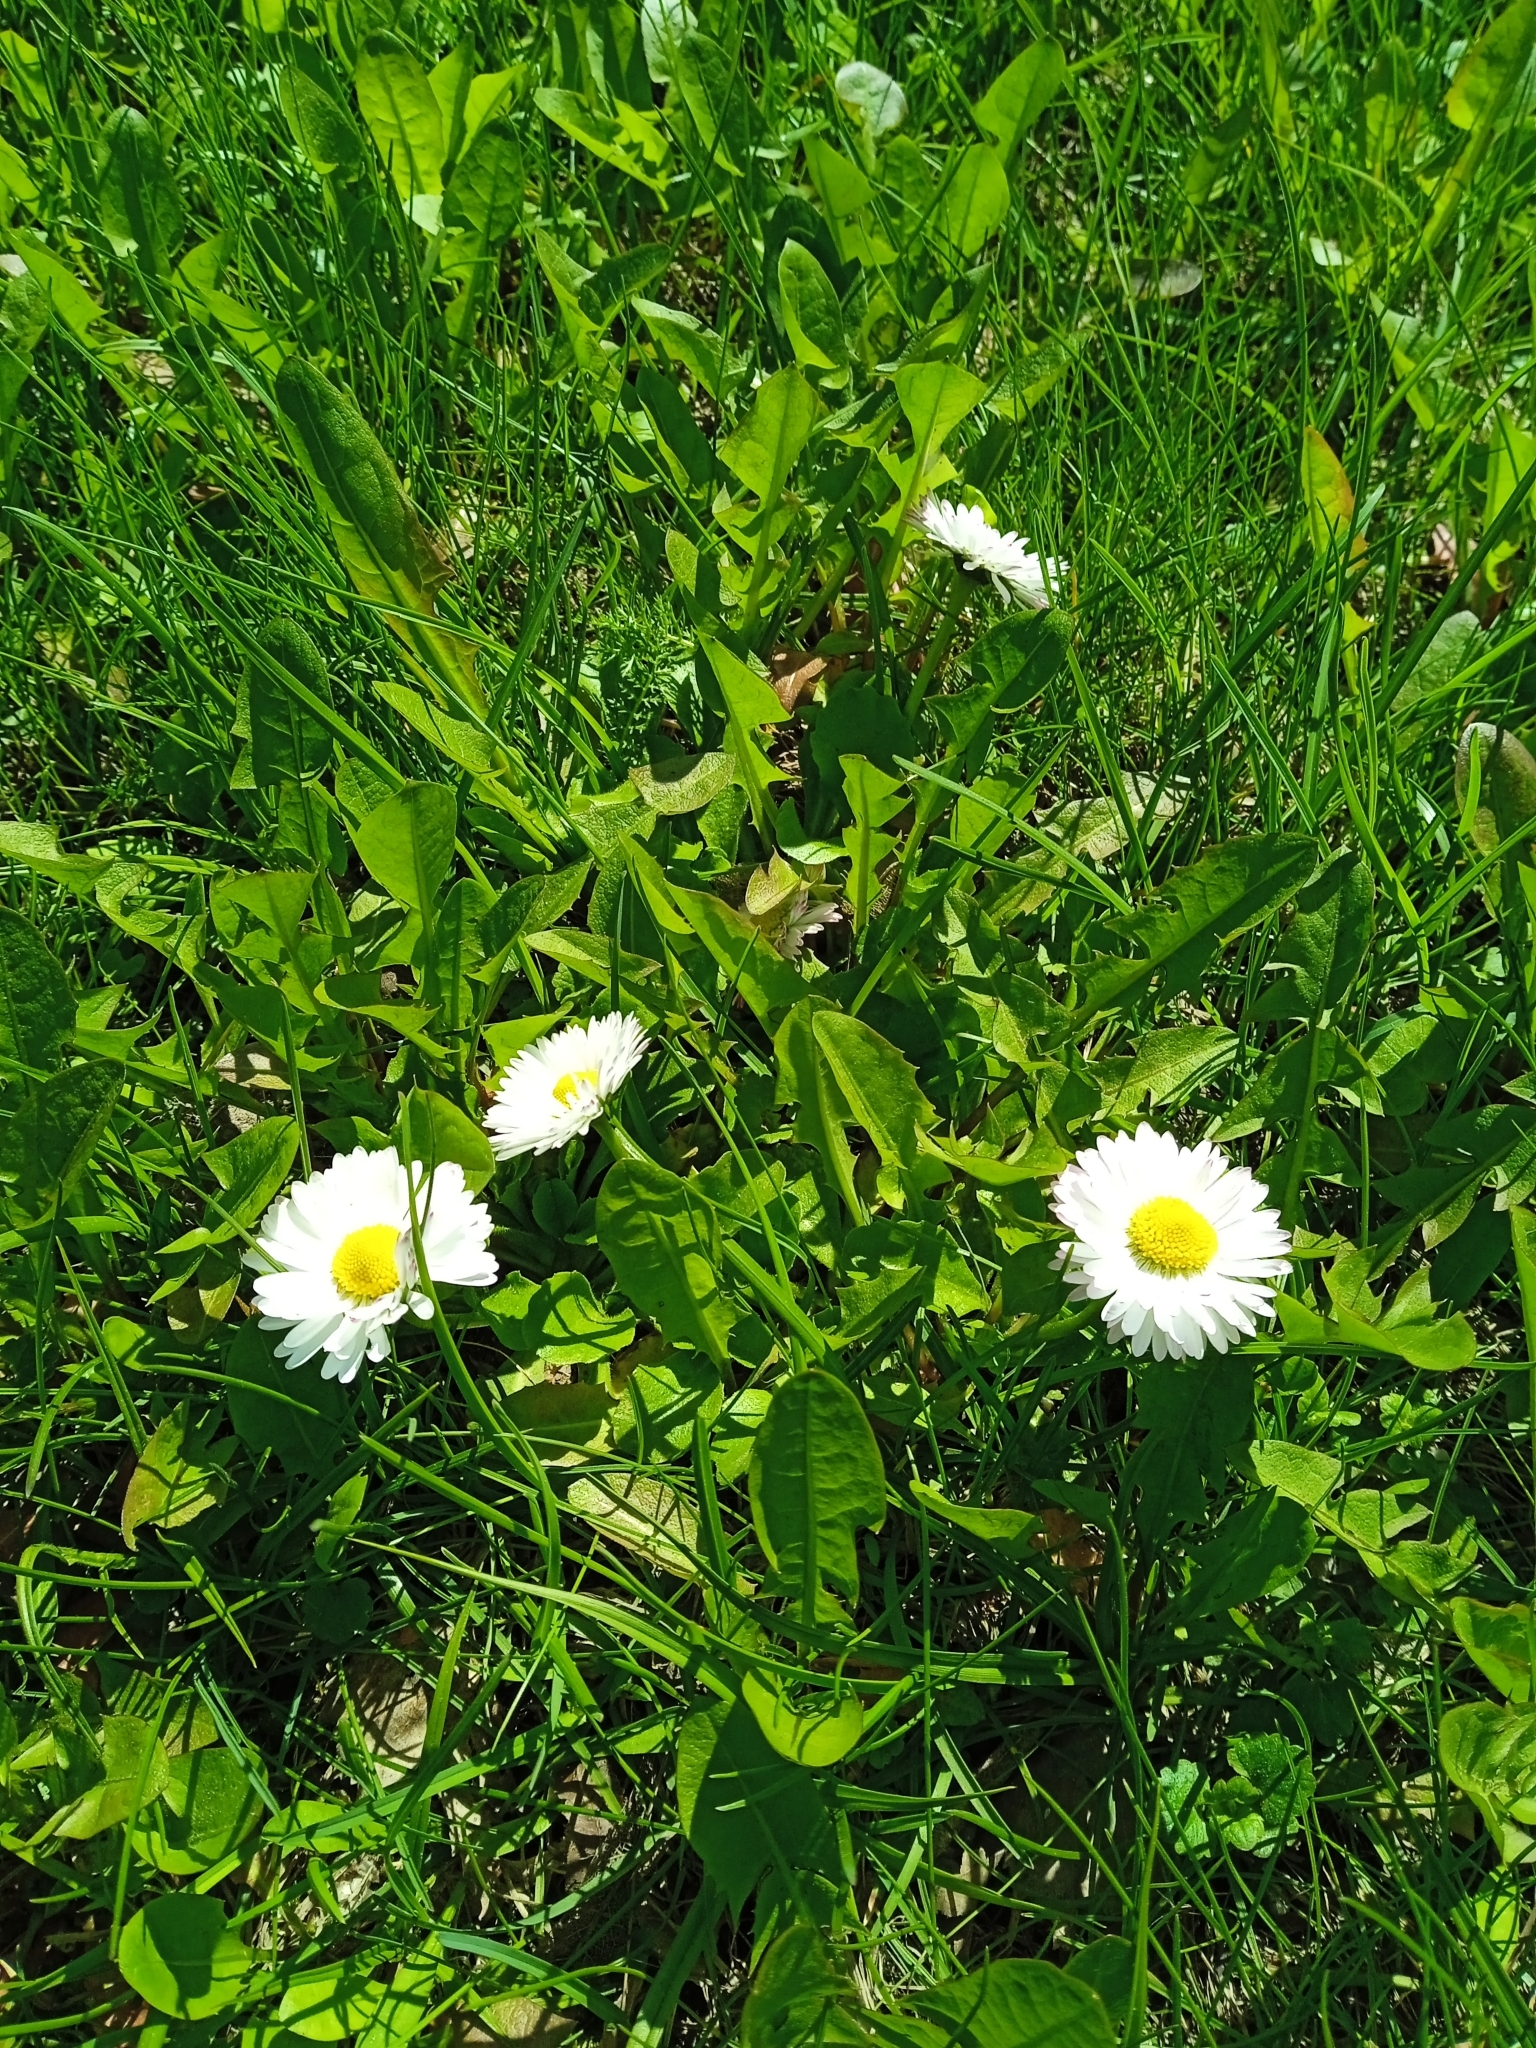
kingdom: Plantae
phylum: Tracheophyta
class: Magnoliopsida
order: Asterales
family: Asteraceae
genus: Bellis
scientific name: Bellis perennis
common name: Lawndaisy
